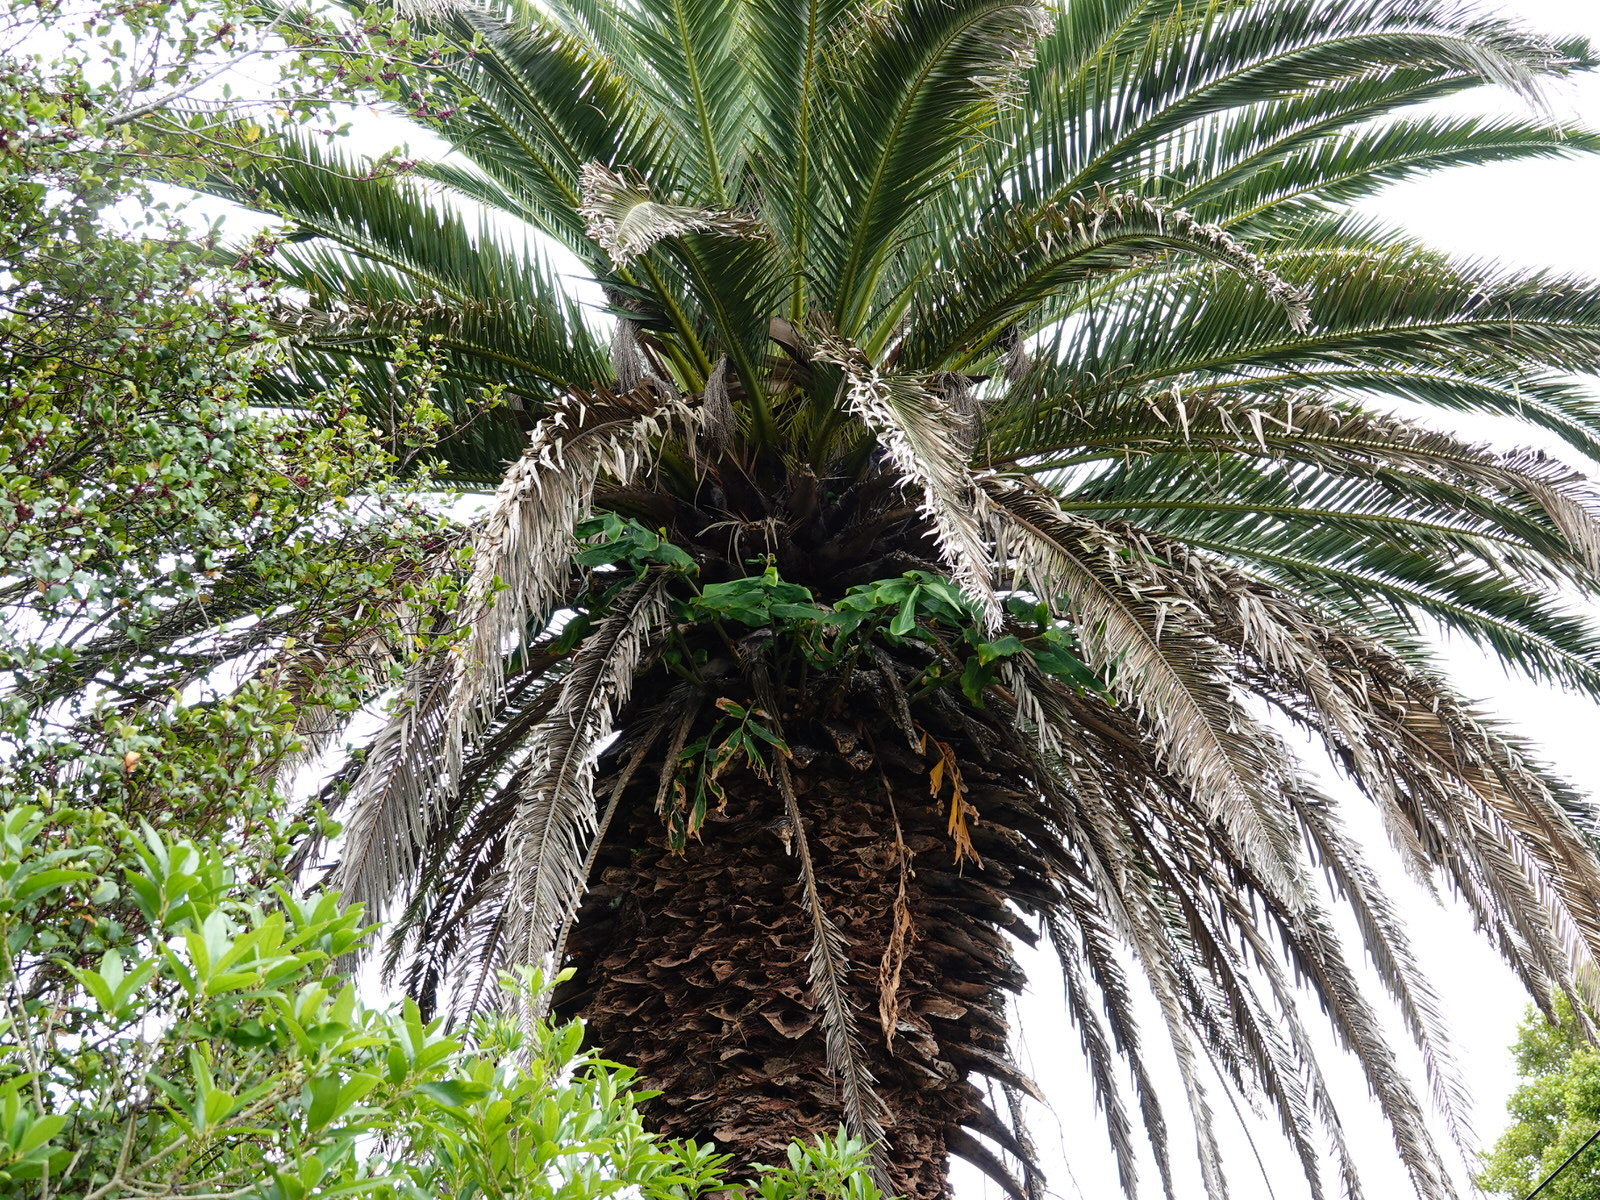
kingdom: Plantae
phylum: Tracheophyta
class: Liliopsida
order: Zingiberales
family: Zingiberaceae
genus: Hedychium
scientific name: Hedychium gardnerianum
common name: Himalayan ginger
